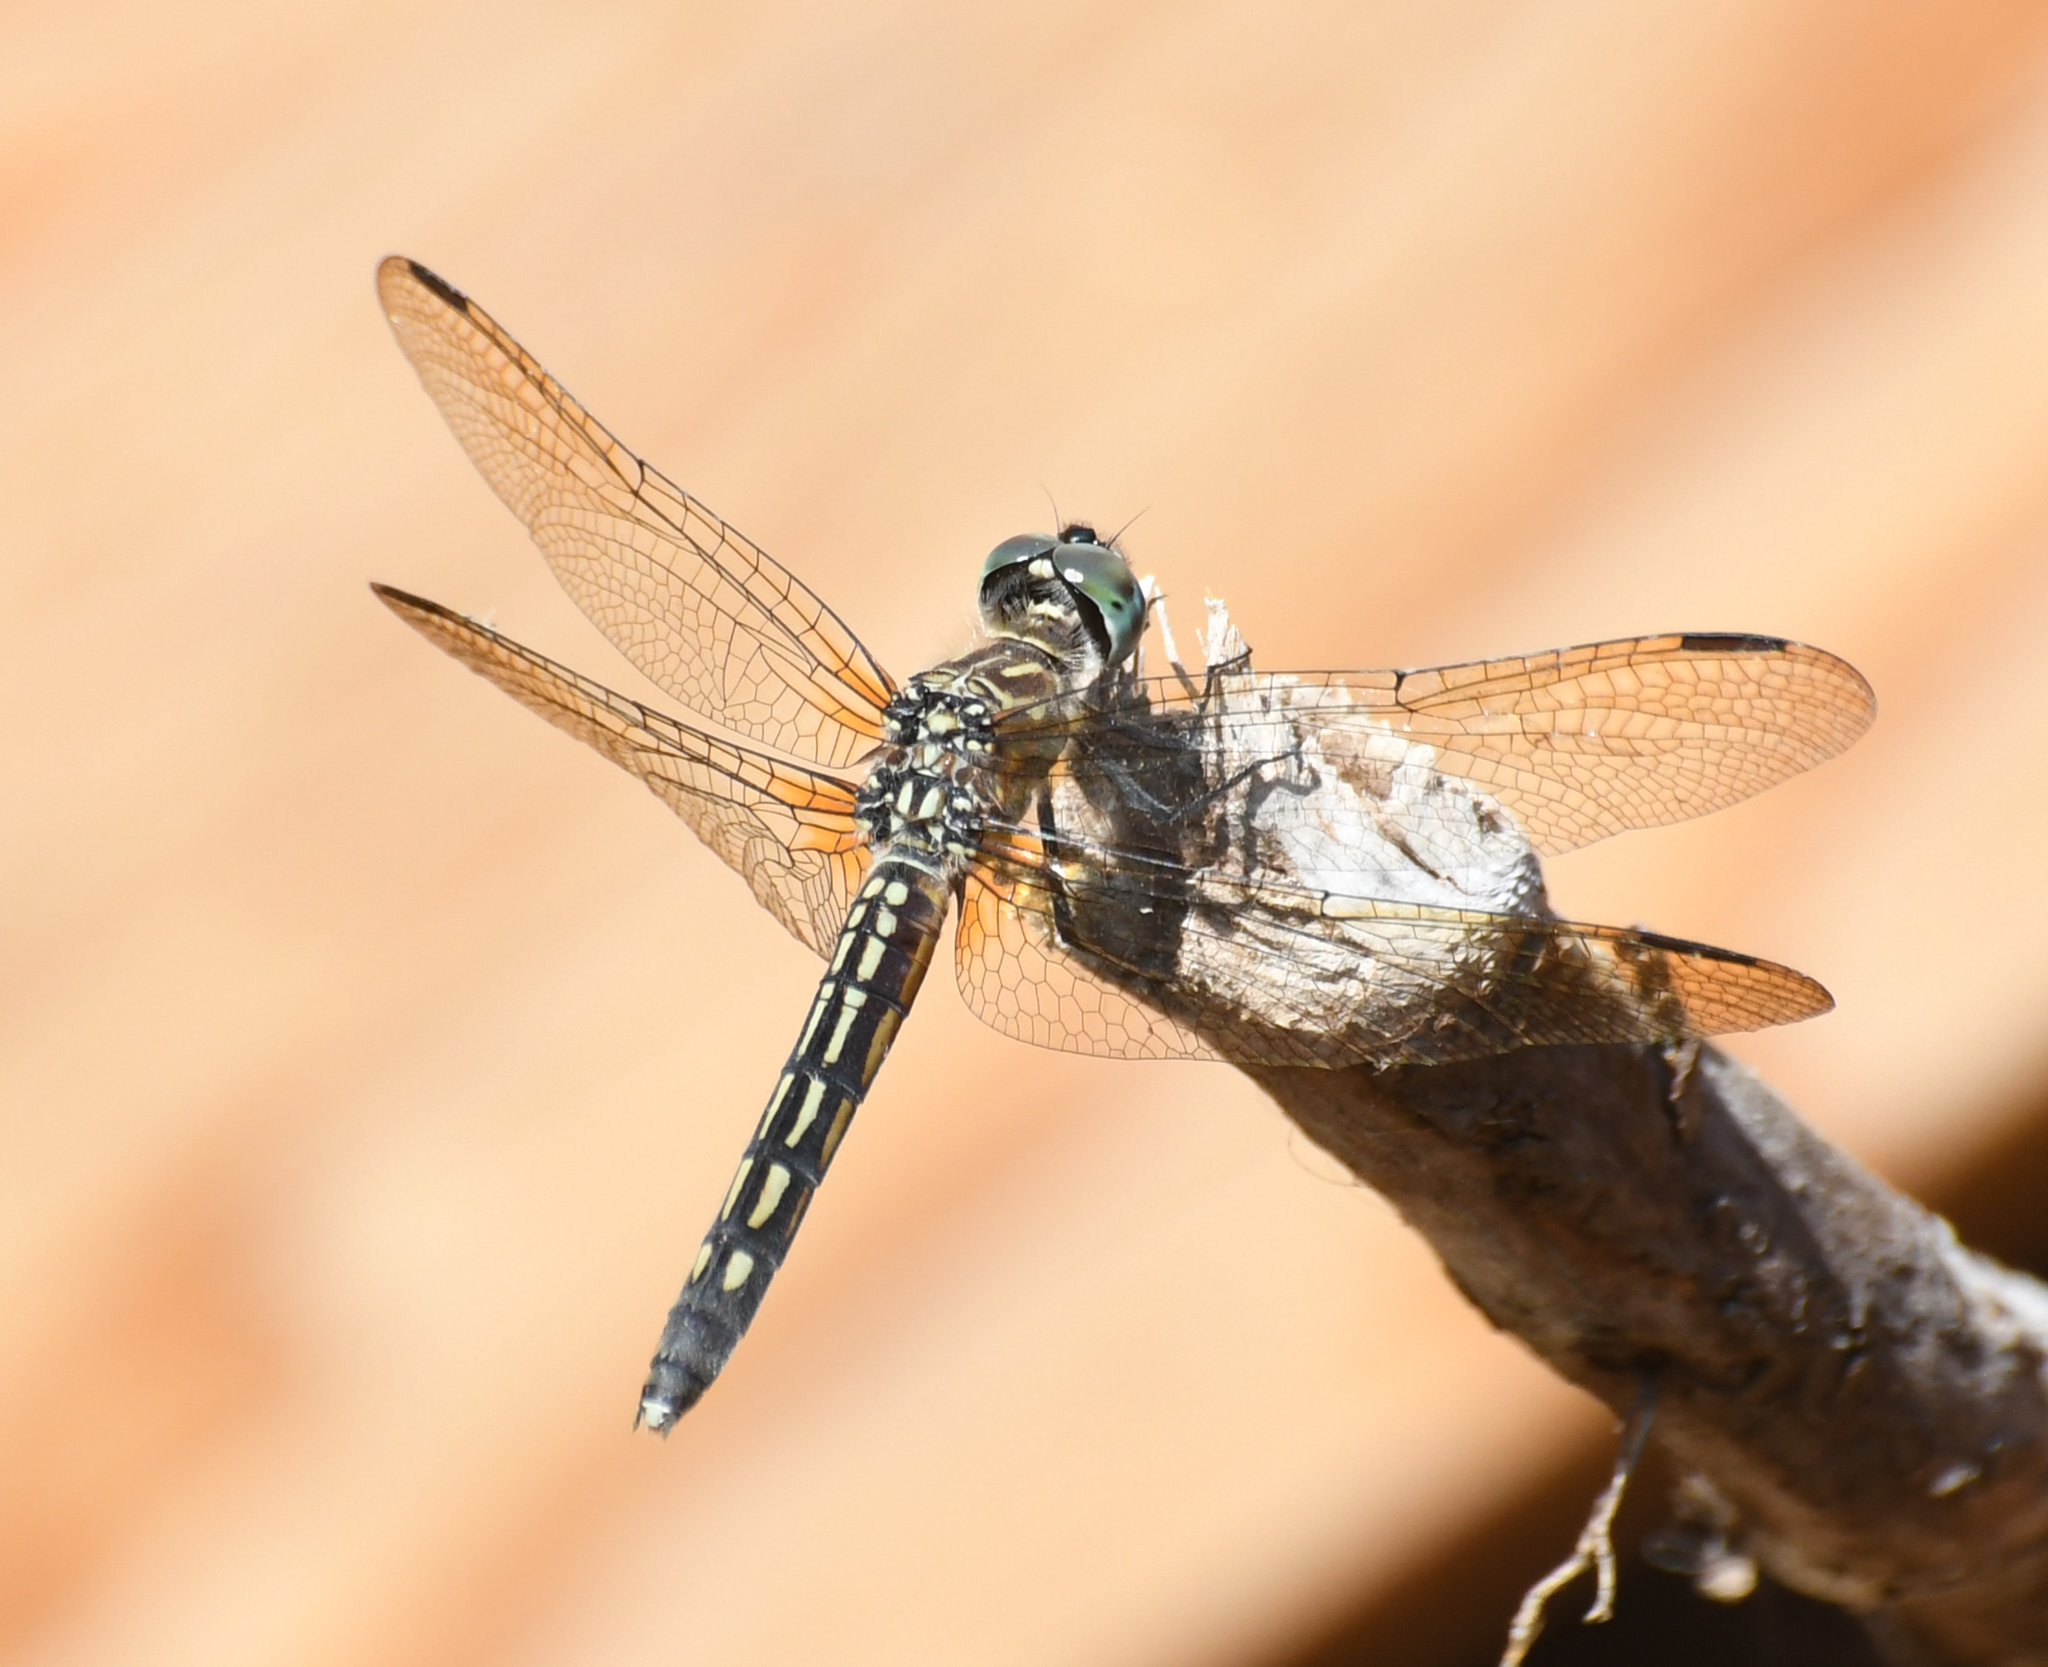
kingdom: Animalia
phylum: Arthropoda
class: Insecta
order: Odonata
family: Libellulidae
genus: Pachydiplax
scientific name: Pachydiplax longipennis
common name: Blue dasher
